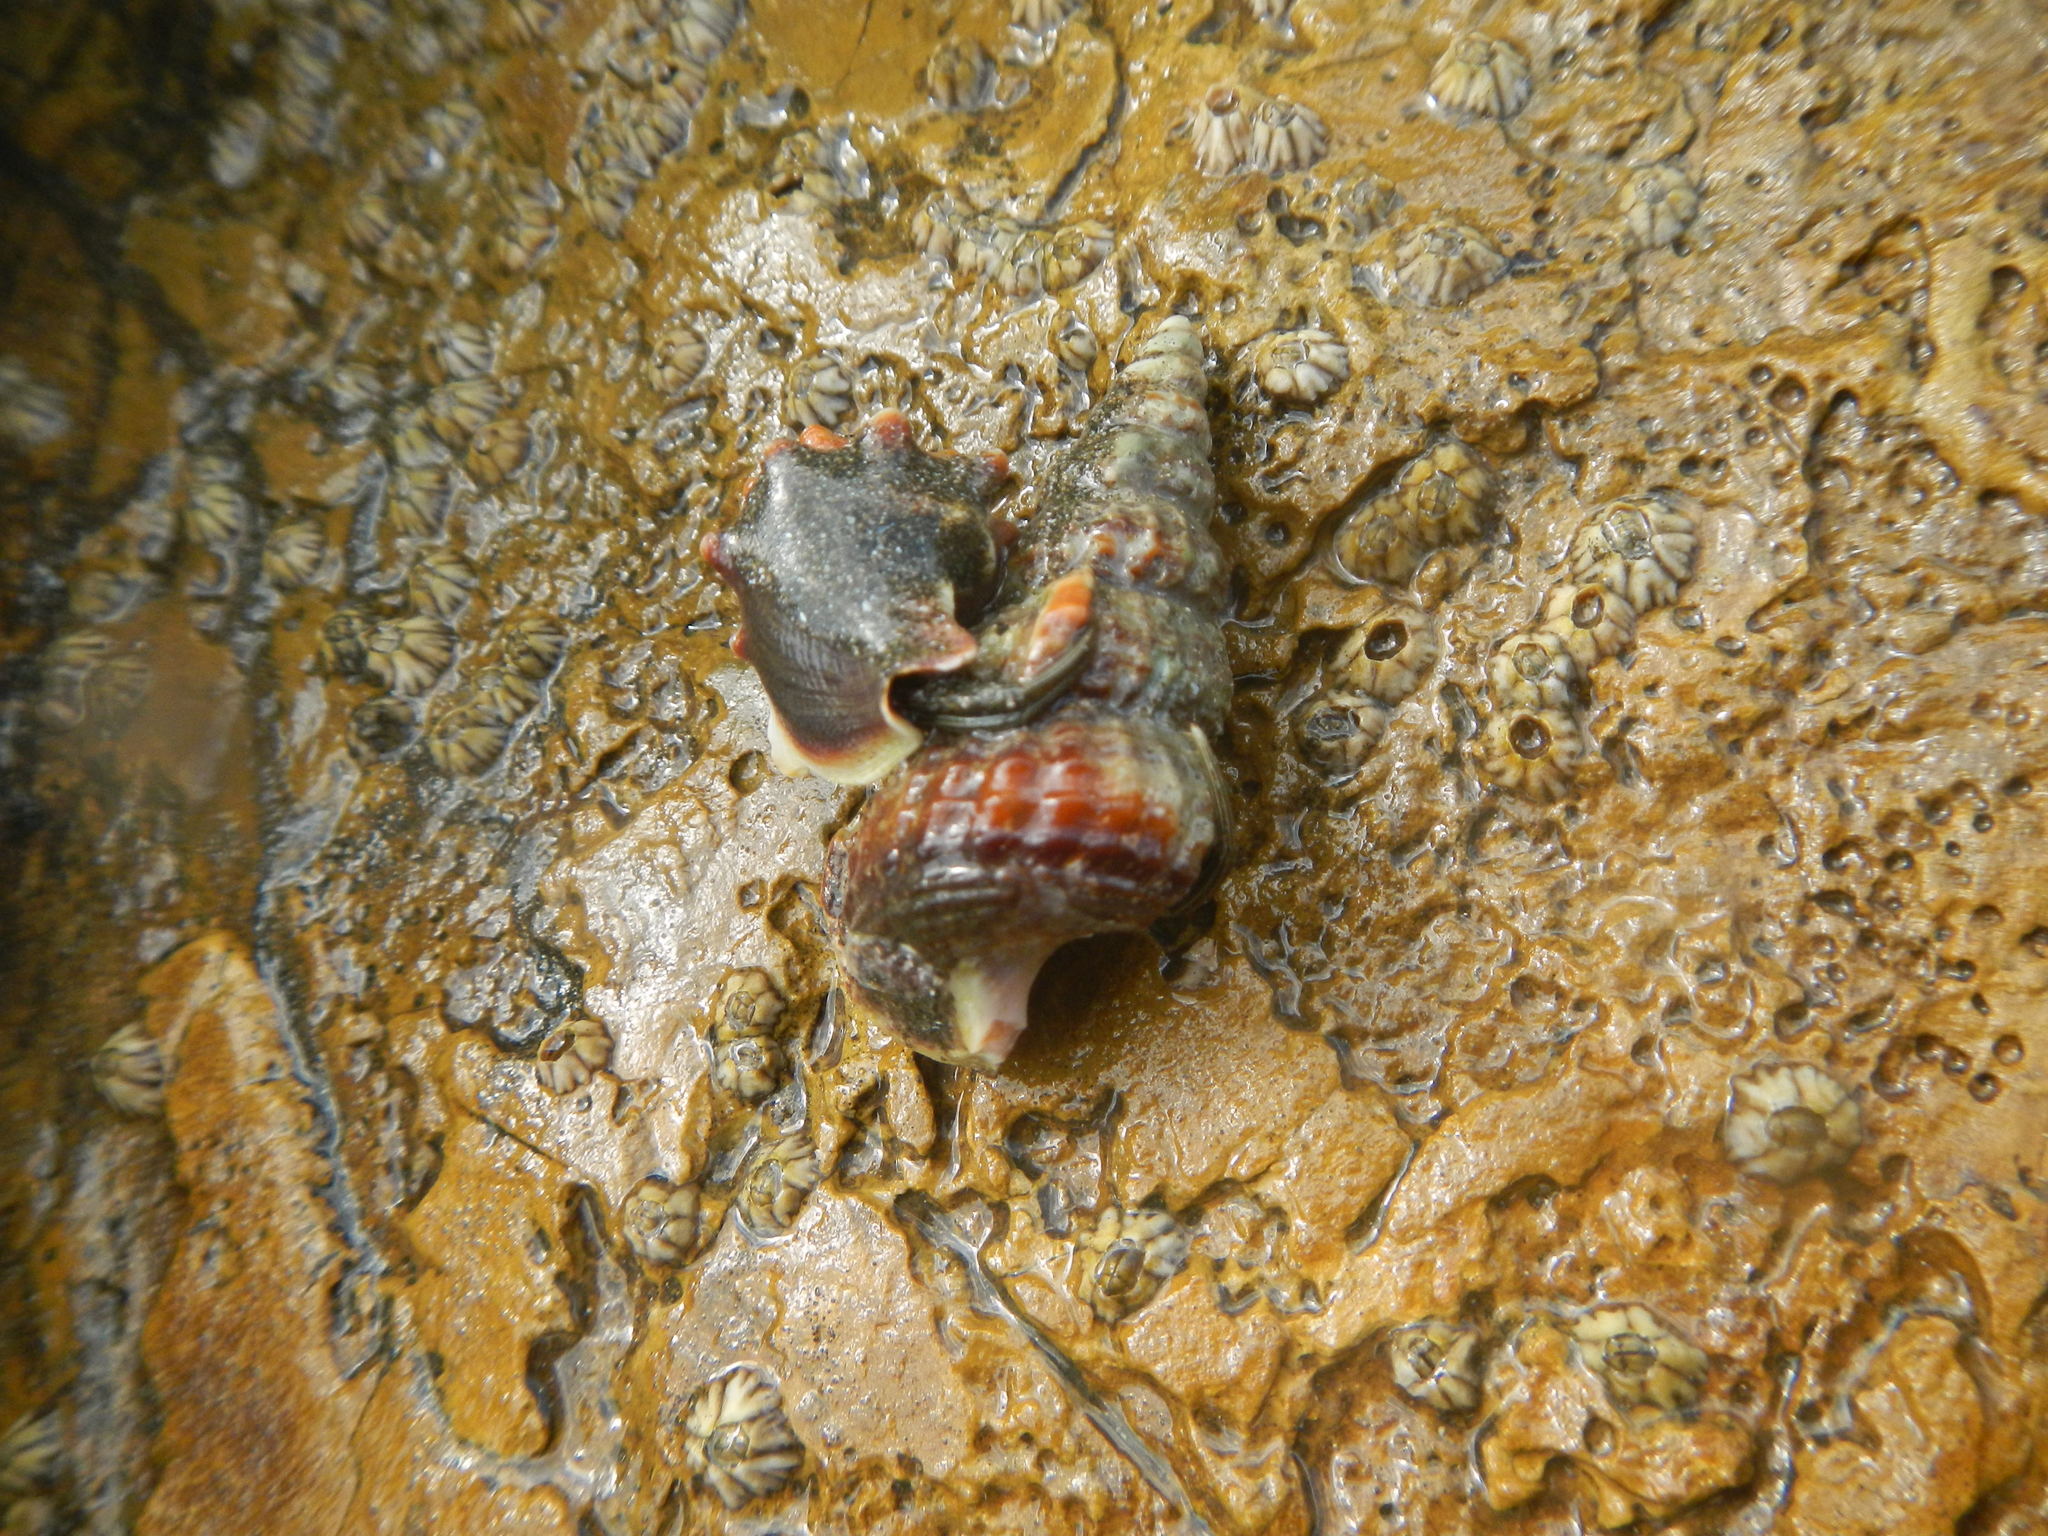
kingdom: Animalia
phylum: Mollusca
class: Gastropoda
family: Potamididae
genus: Cerithideopsis
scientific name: Cerithideopsis californica
